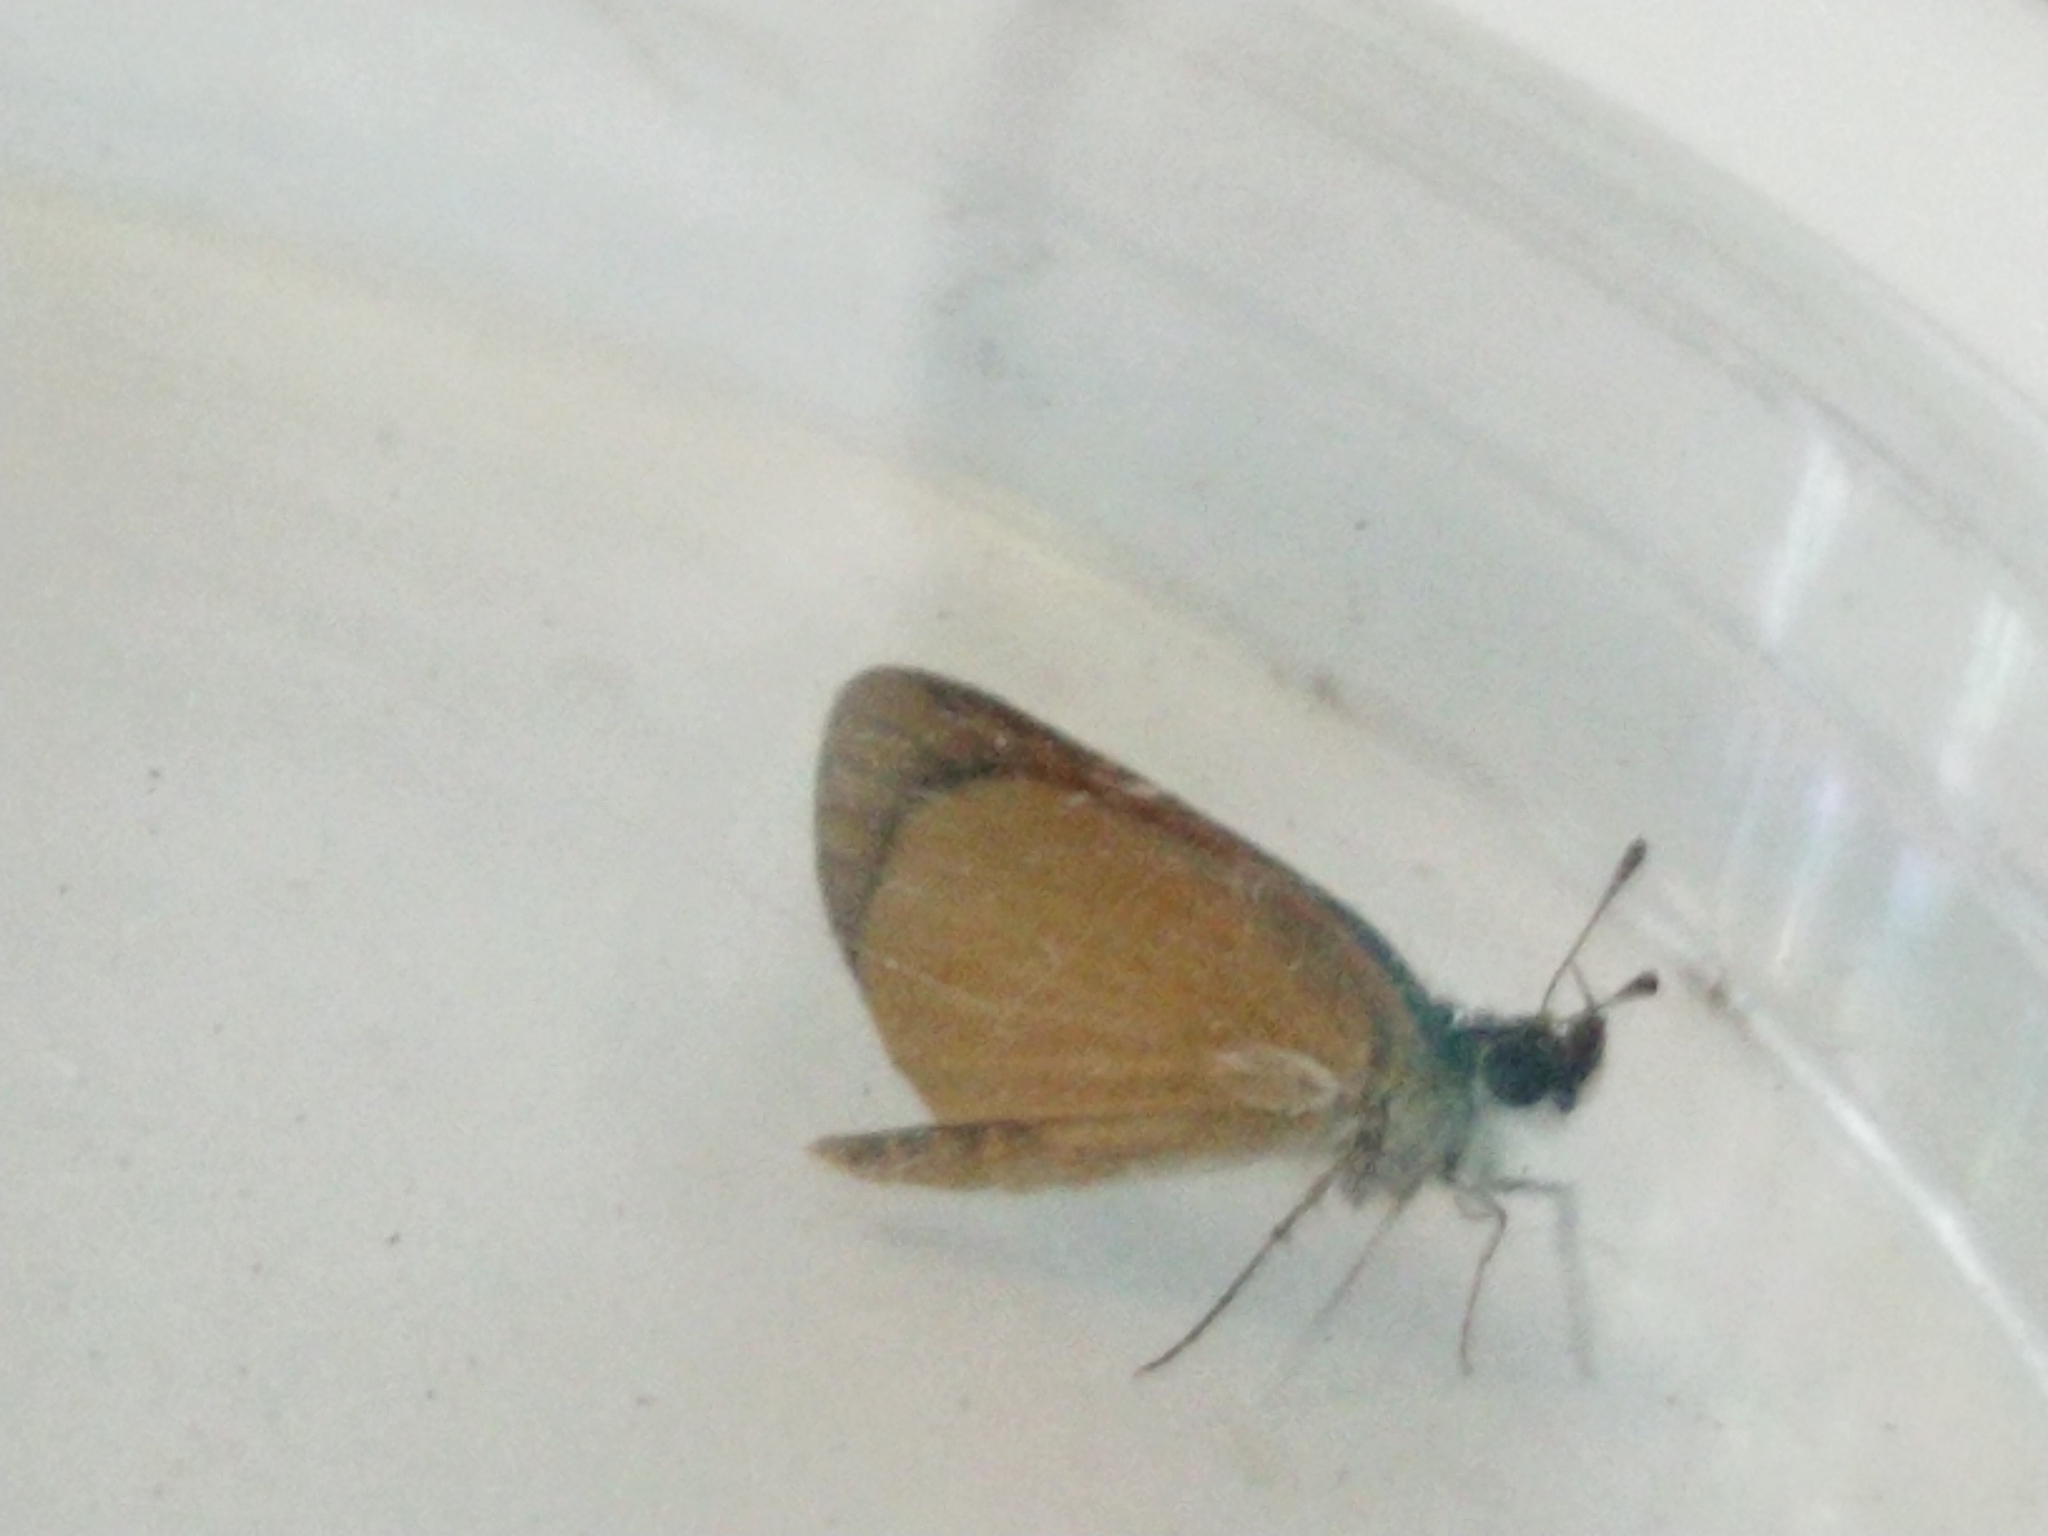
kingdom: Animalia
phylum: Arthropoda
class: Insecta
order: Lepidoptera
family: Hesperiidae
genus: Ancyloxypha
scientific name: Ancyloxypha numitor
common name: Least skipper
